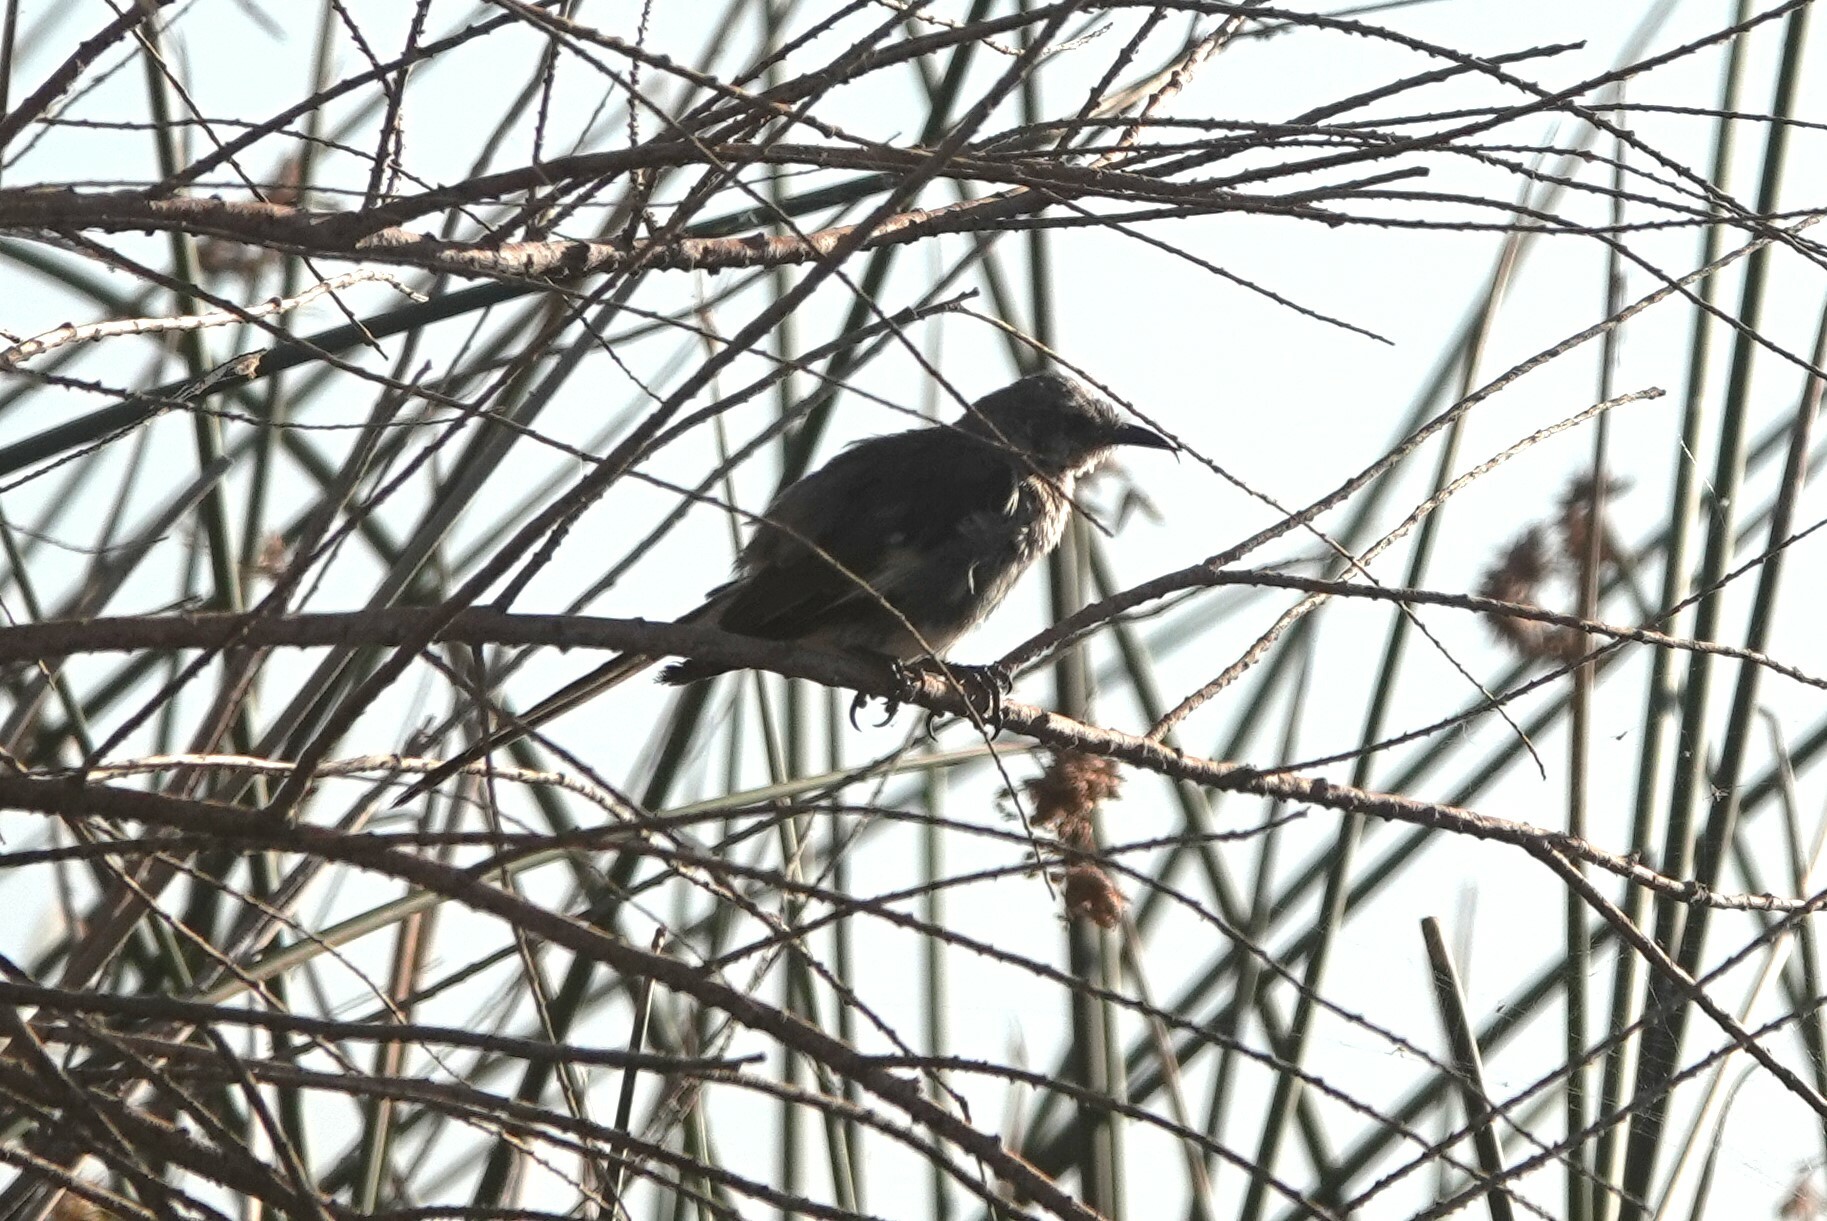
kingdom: Animalia
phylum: Chordata
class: Aves
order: Passeriformes
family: Mimidae
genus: Mimus
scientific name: Mimus polyglottos
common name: Northern mockingbird
